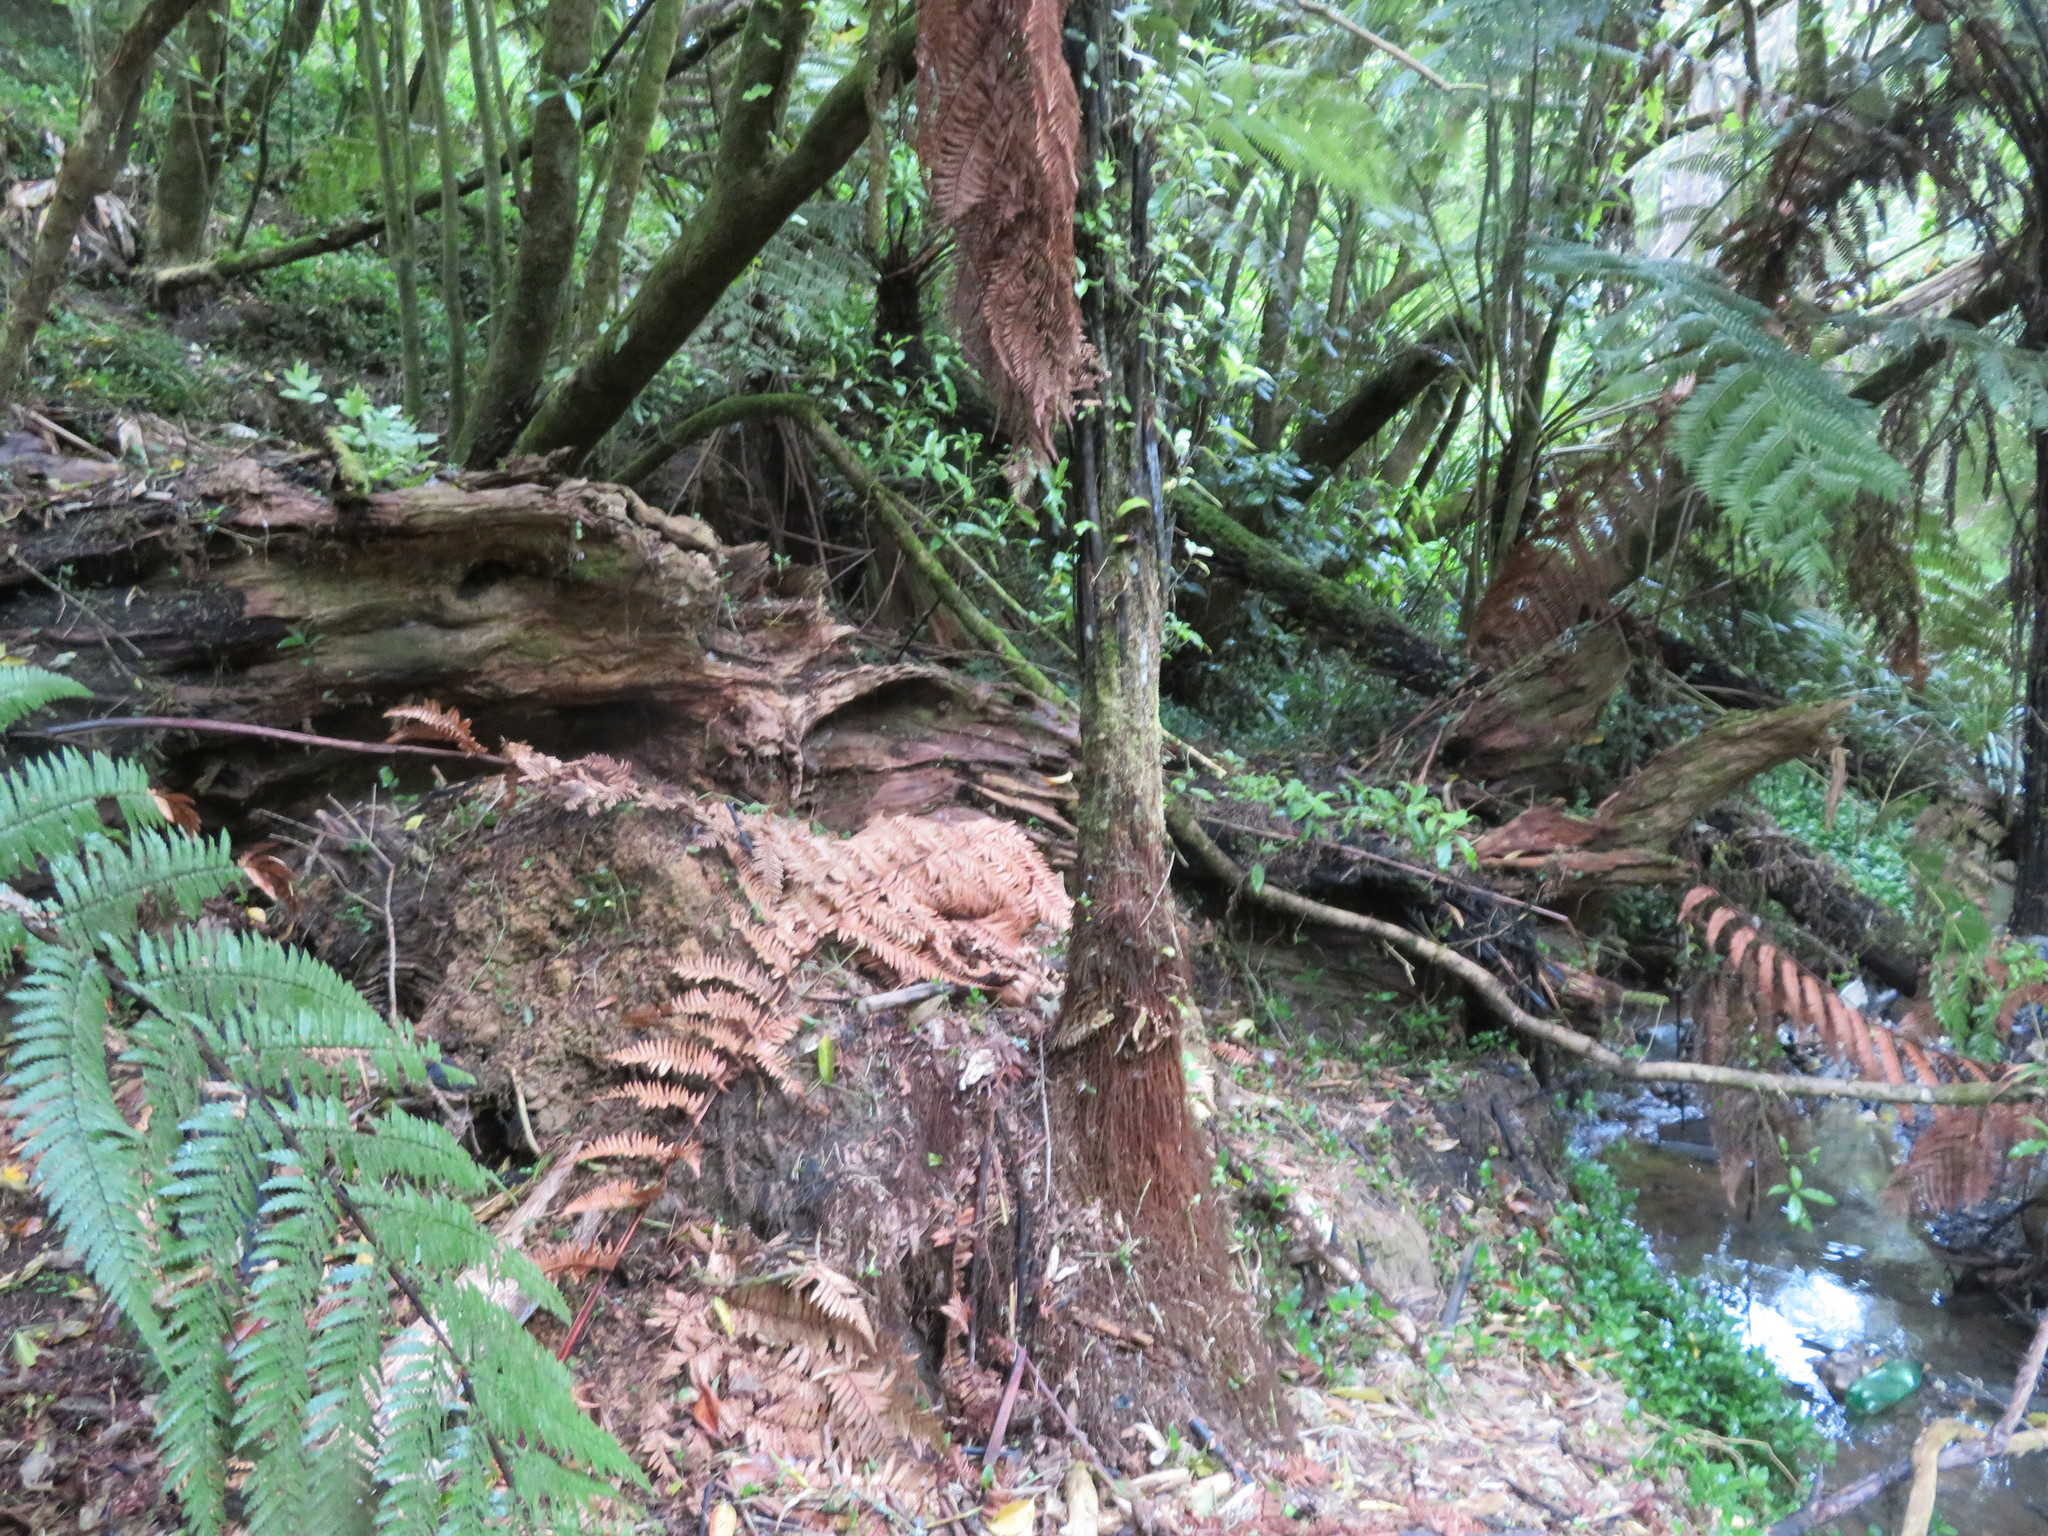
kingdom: Plantae
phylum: Tracheophyta
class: Liliopsida
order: Commelinales
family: Commelinaceae
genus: Tradescantia
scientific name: Tradescantia fluminensis
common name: Wandering-jew
